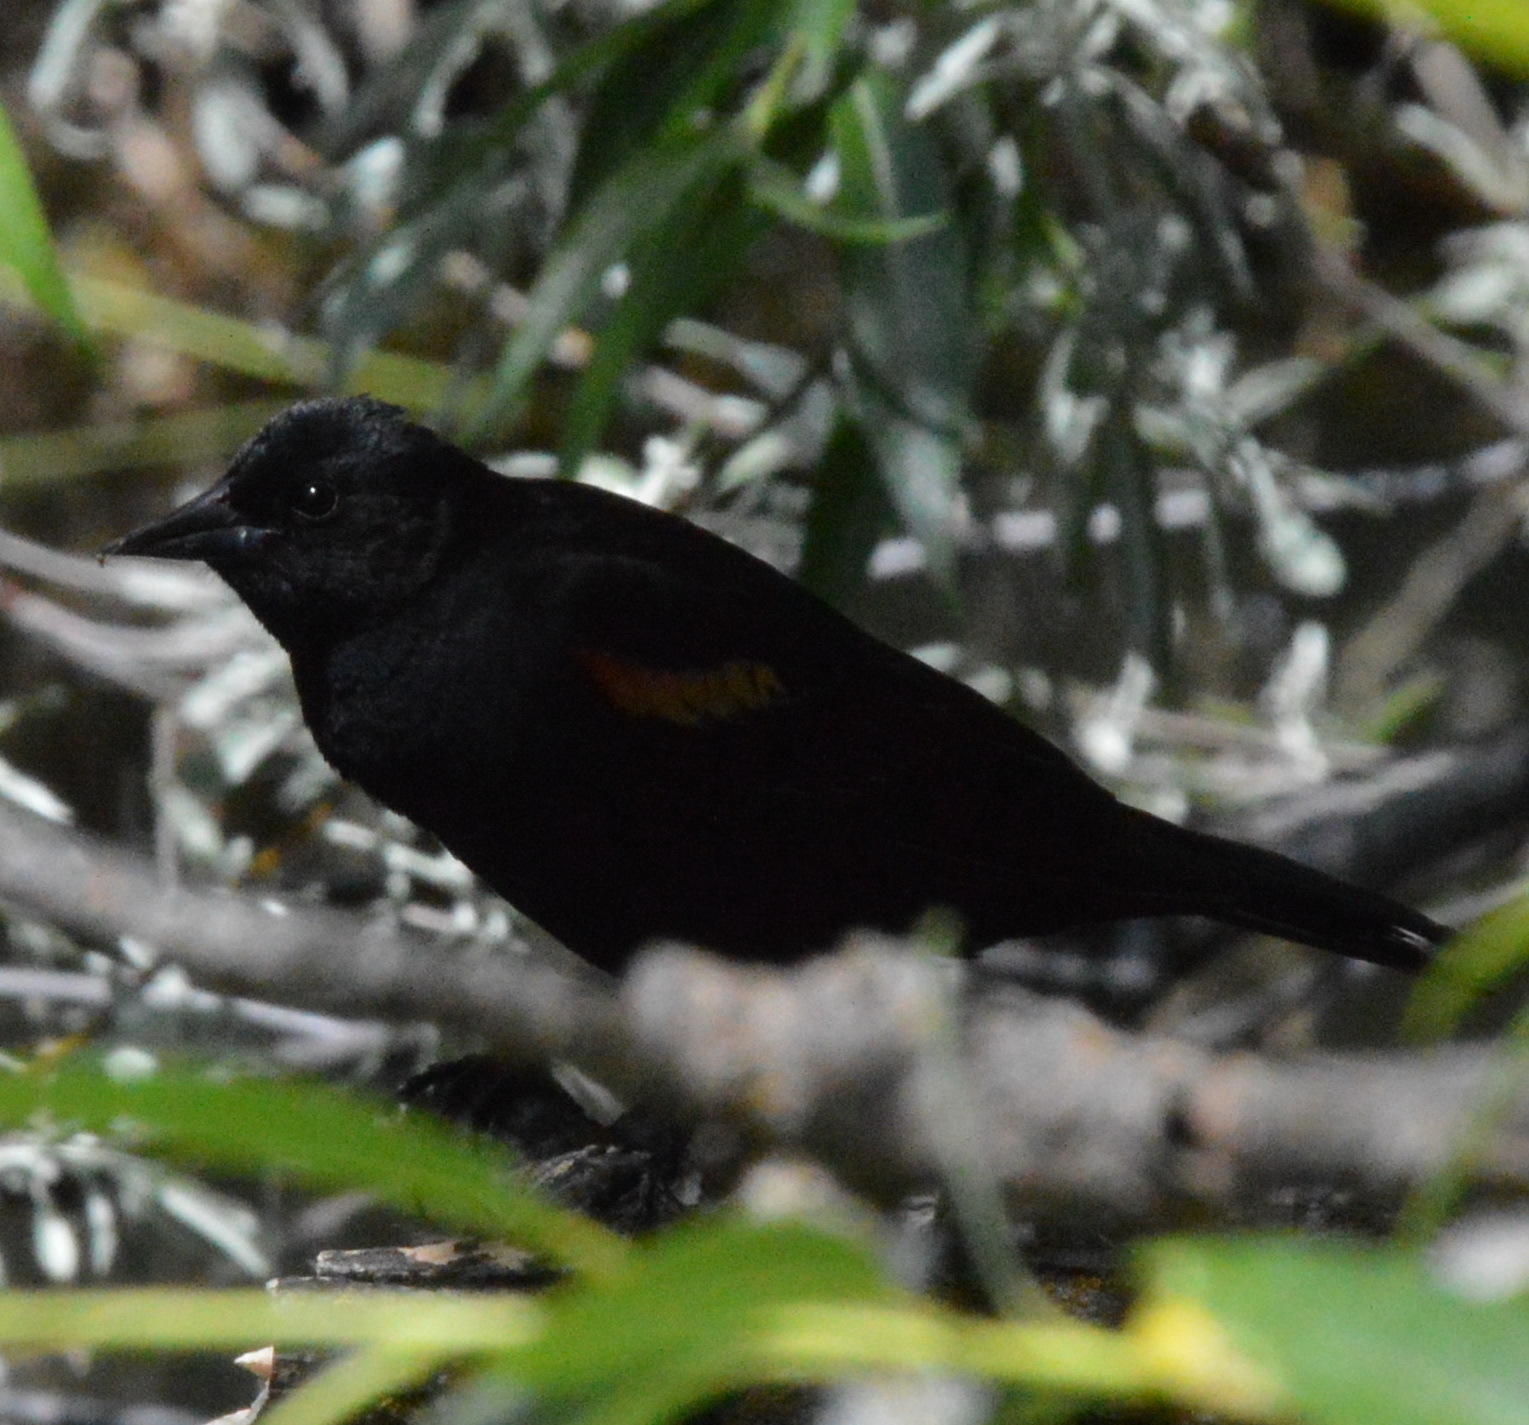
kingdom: Animalia
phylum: Chordata
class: Aves
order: Passeriformes
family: Icteridae
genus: Agelaius
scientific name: Agelaius phoeniceus
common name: Red-winged blackbird
